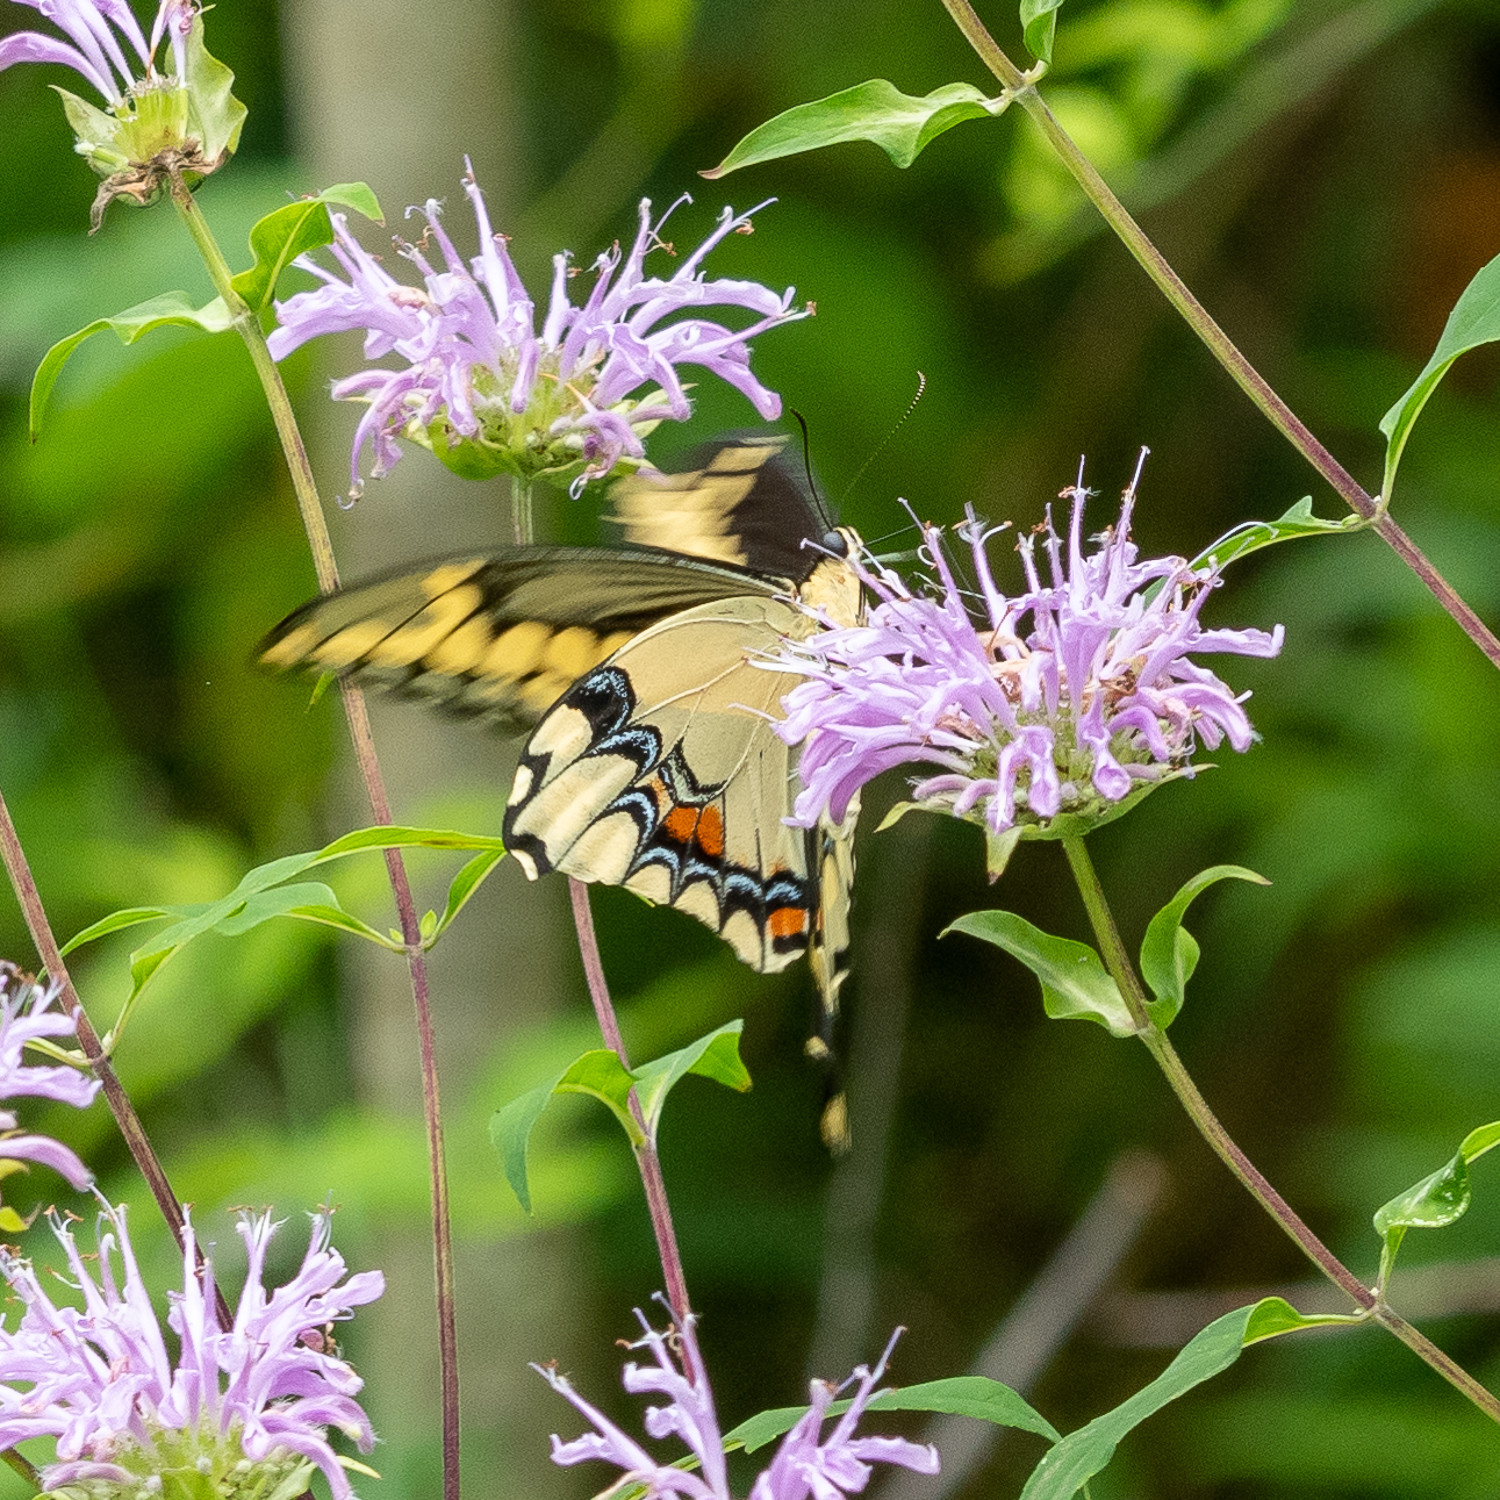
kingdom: Animalia
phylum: Arthropoda
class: Insecta
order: Lepidoptera
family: Papilionidae
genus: Papilio
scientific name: Papilio cresphontes
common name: Giant swallowtail
